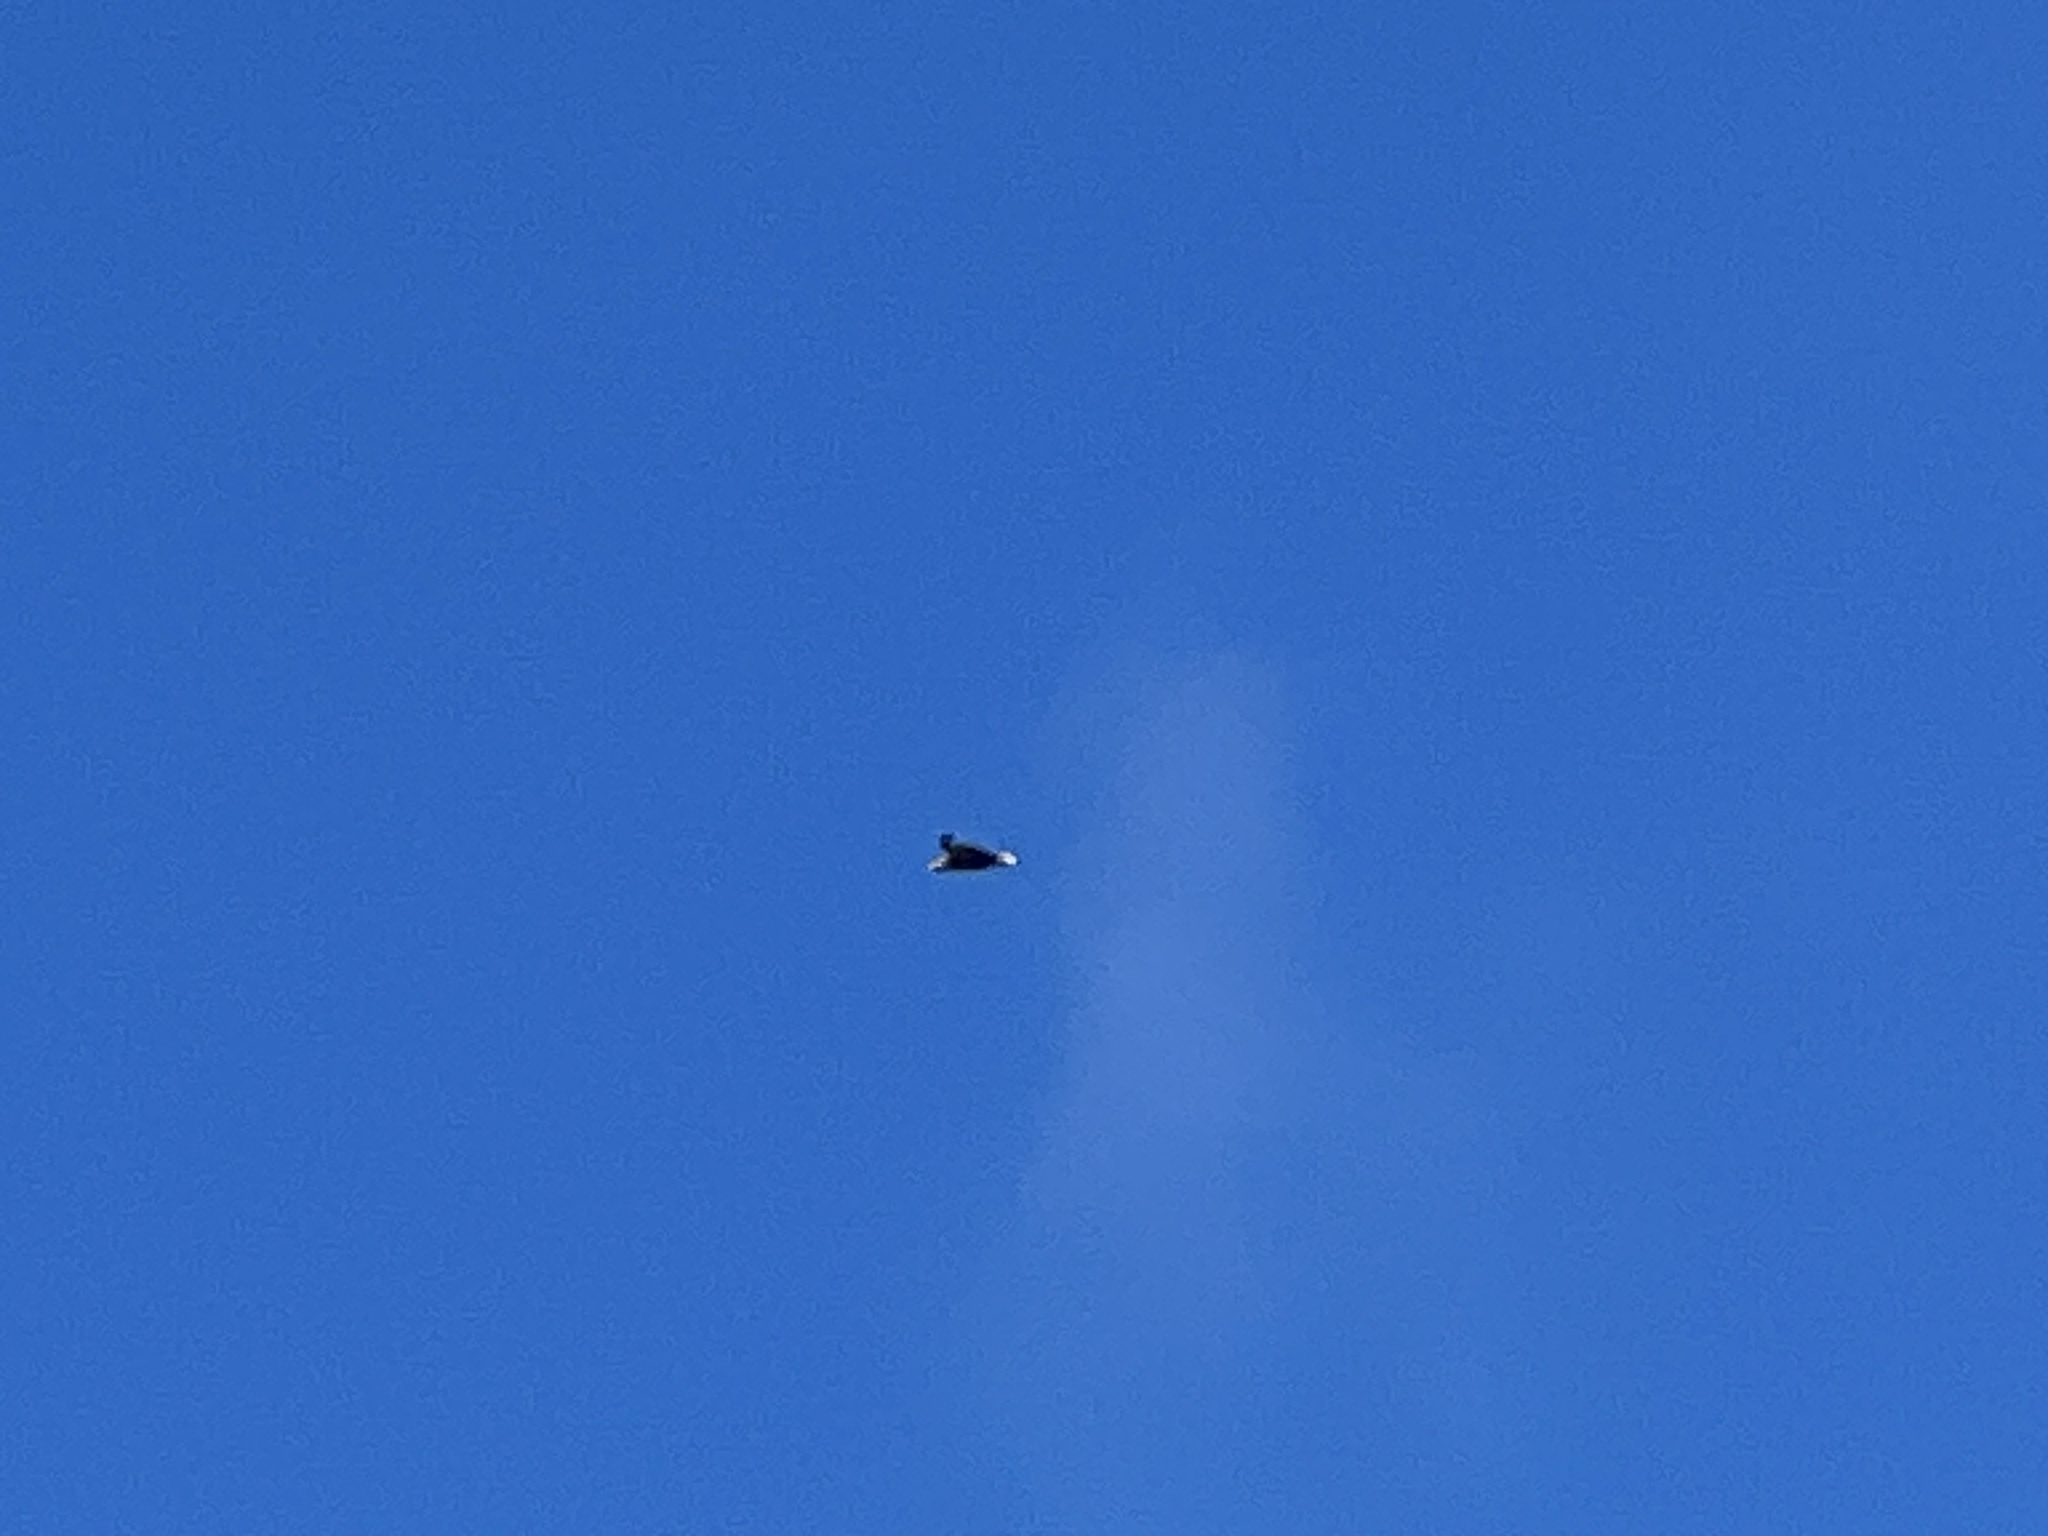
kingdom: Animalia
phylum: Chordata
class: Aves
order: Accipitriformes
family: Accipitridae
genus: Haliaeetus
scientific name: Haliaeetus albicilla
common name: White-tailed eagle
